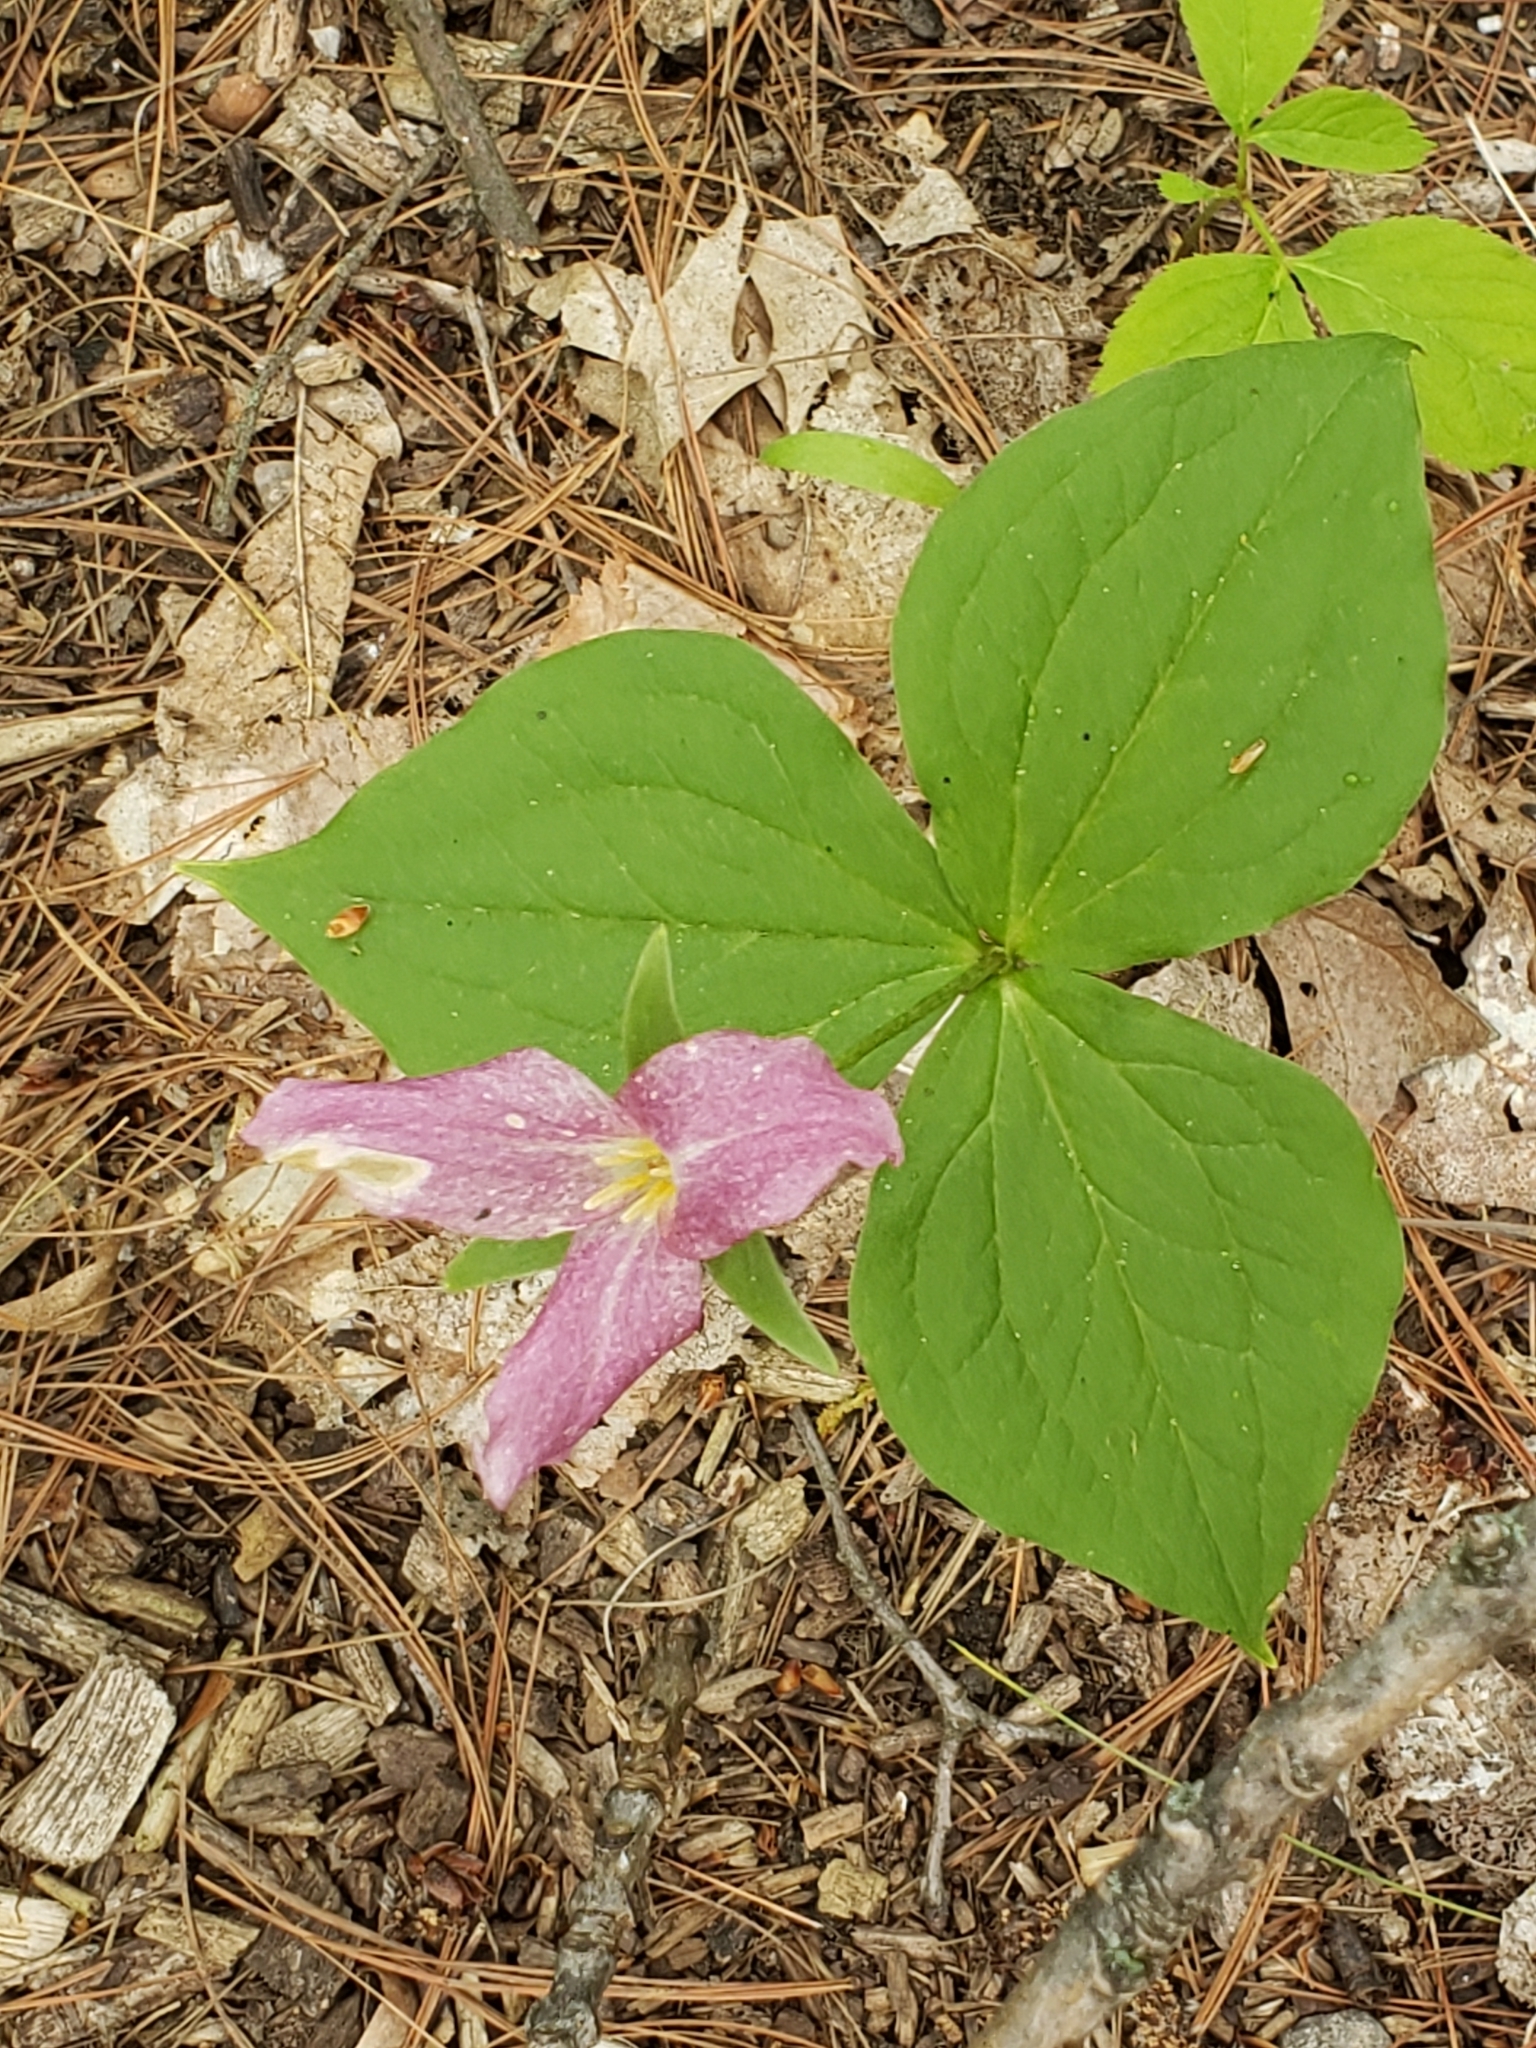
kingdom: Plantae
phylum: Tracheophyta
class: Liliopsida
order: Liliales
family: Melanthiaceae
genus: Trillium
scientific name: Trillium grandiflorum
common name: Great white trillium
